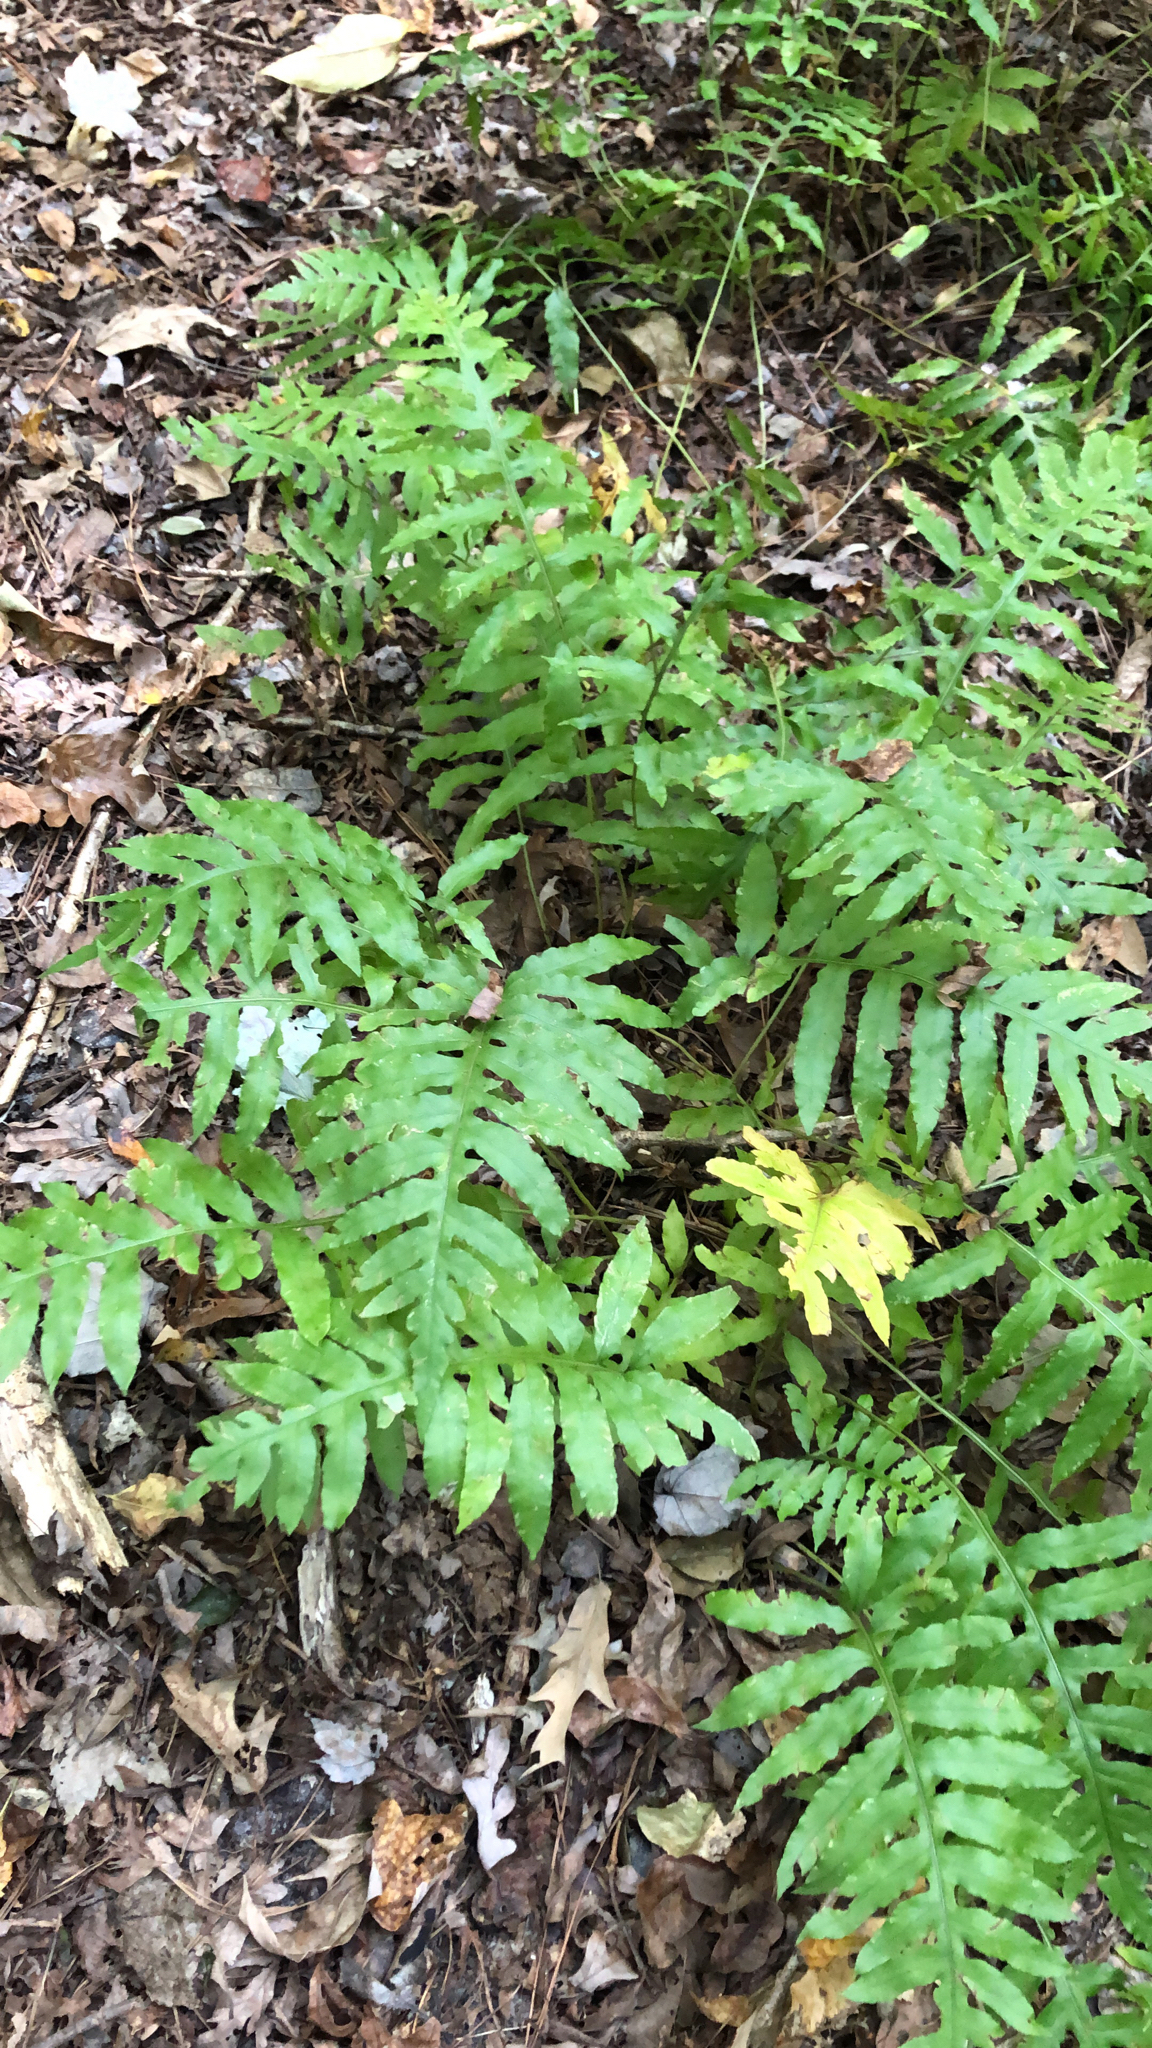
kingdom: Plantae
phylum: Tracheophyta
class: Polypodiopsida
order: Polypodiales
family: Blechnaceae
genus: Lorinseria
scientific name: Lorinseria areolata
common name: Dwarf chain fern
